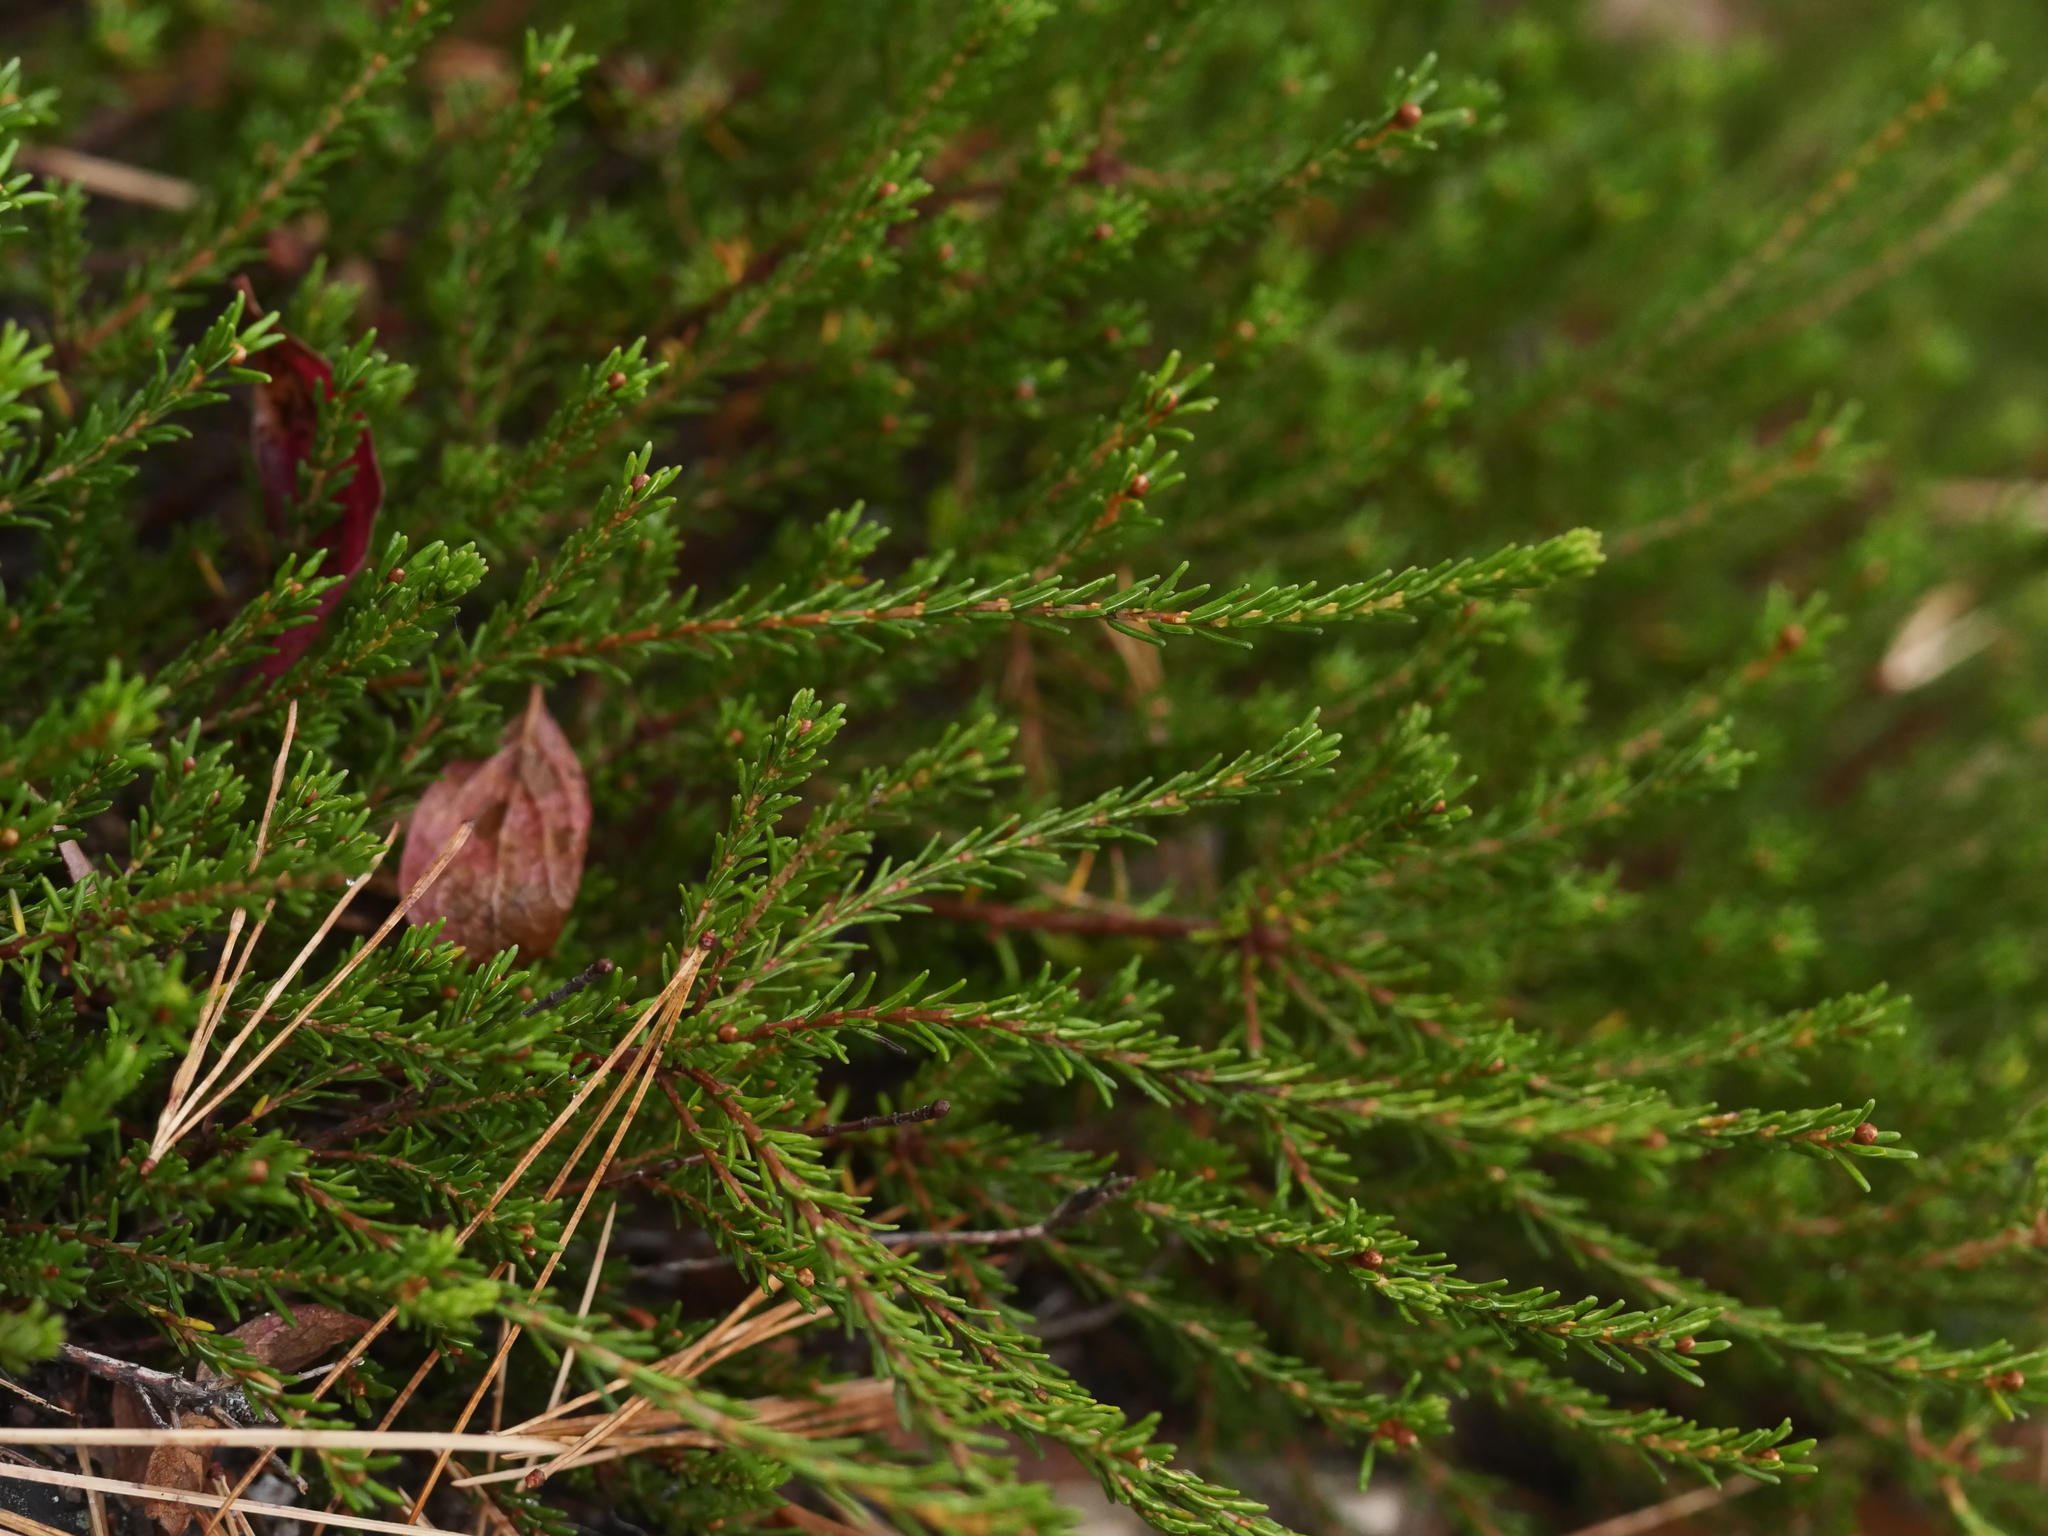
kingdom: Plantae
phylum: Tracheophyta
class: Magnoliopsida
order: Ericales
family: Ericaceae
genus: Corema
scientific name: Corema conradii
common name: Broom-crowberry
